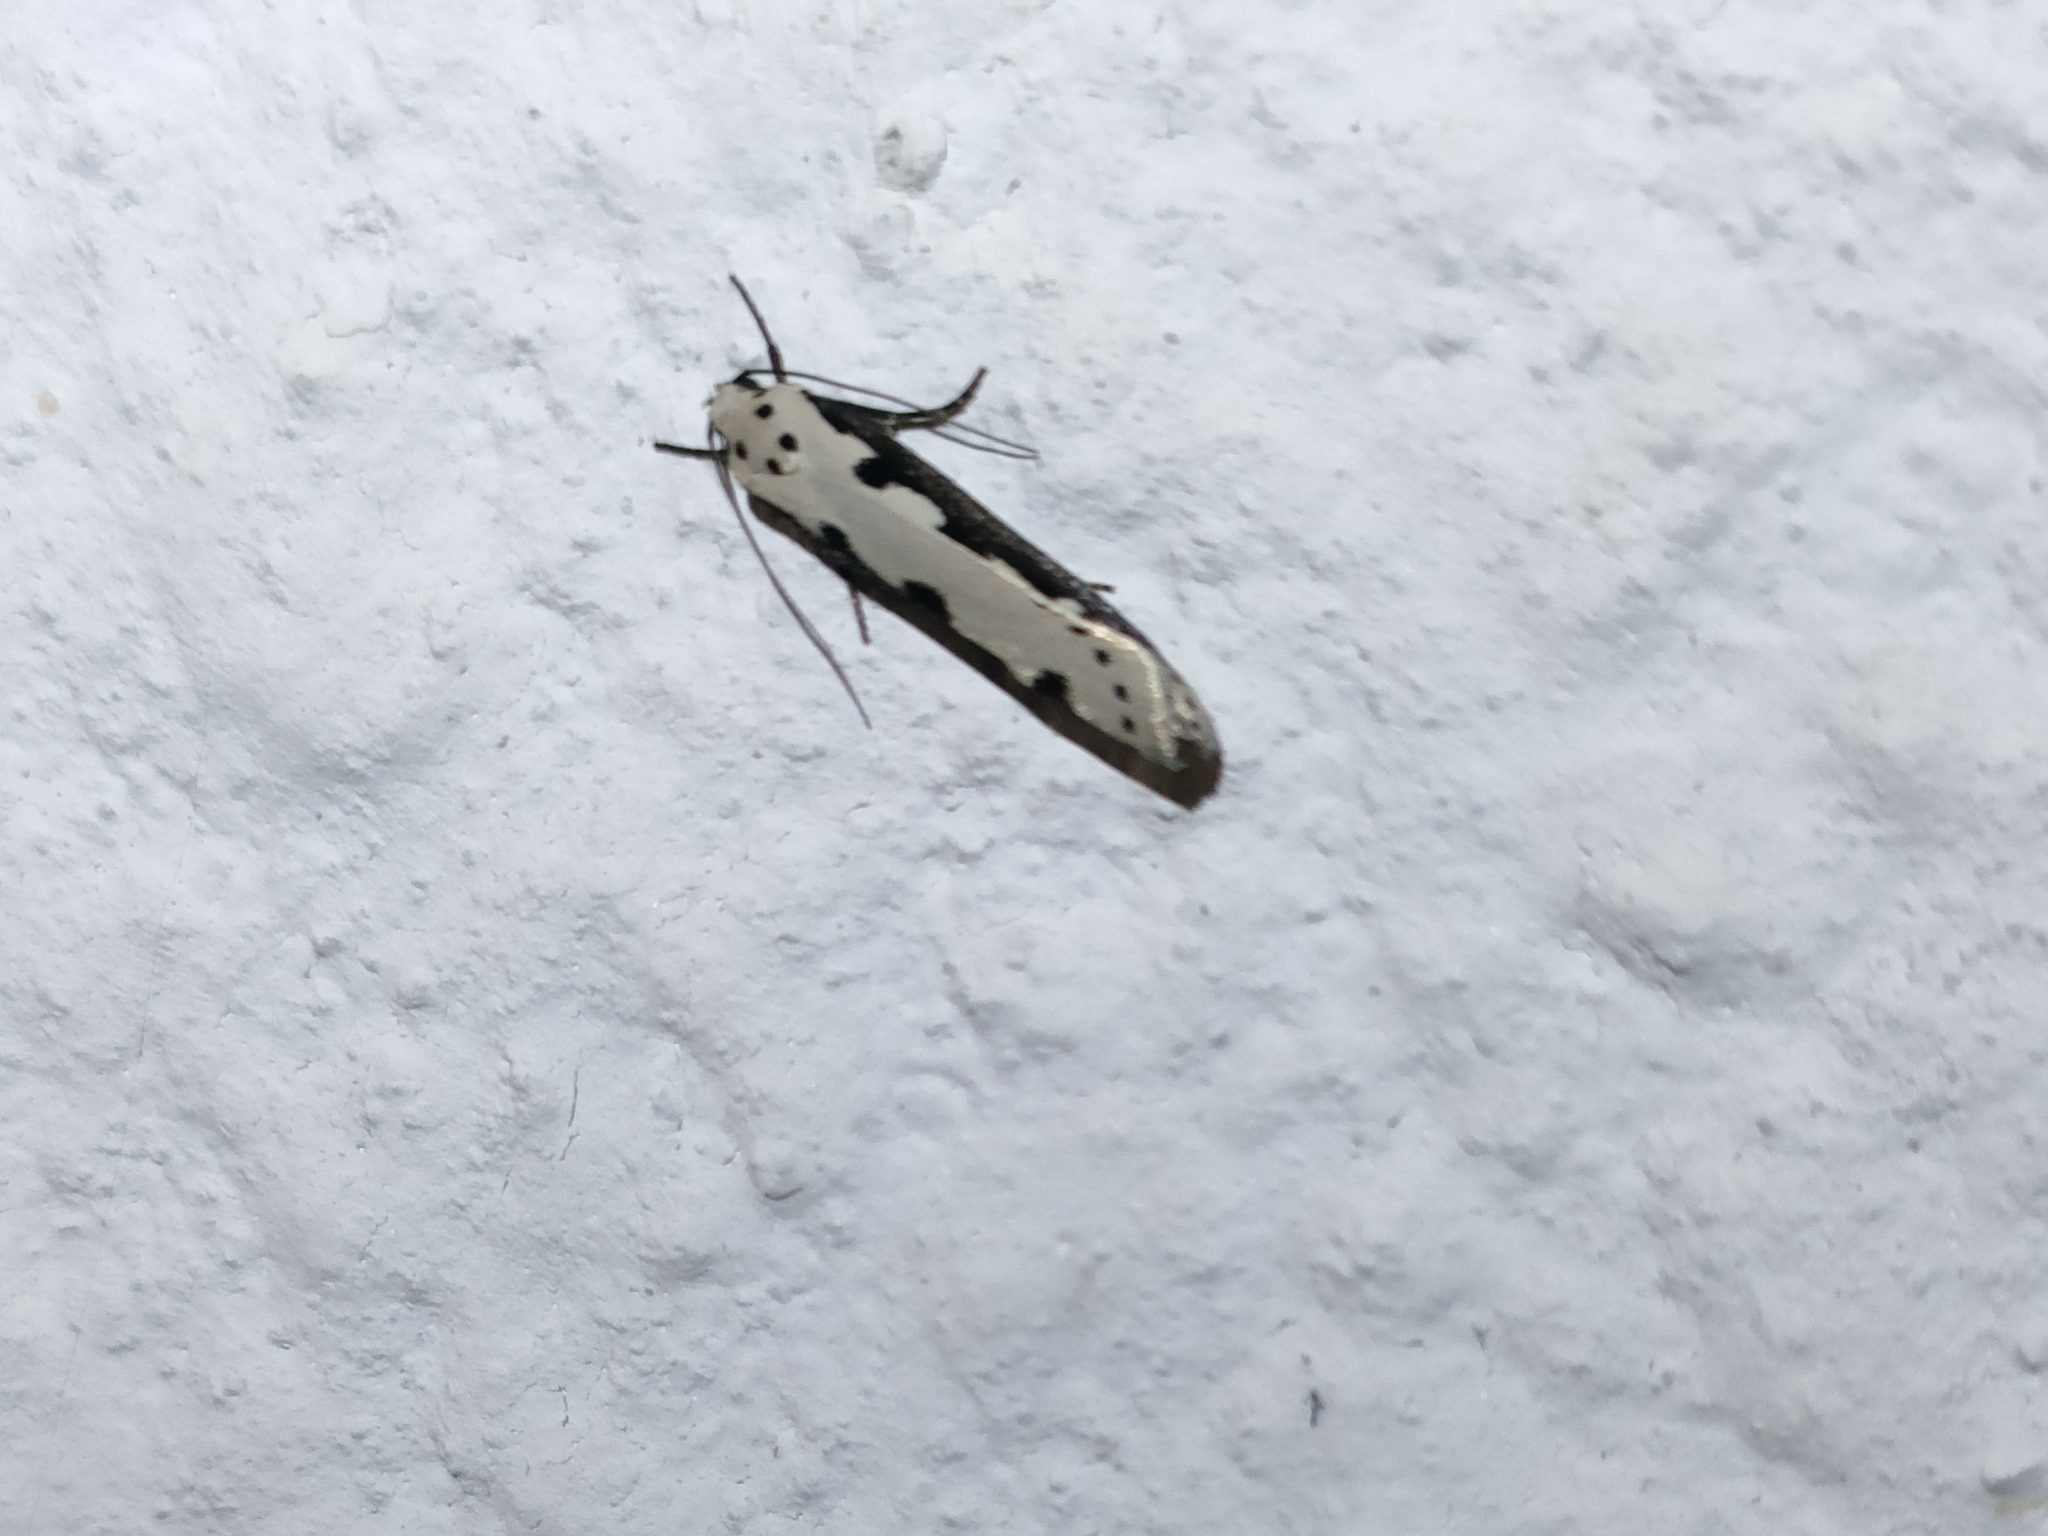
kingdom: Animalia
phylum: Arthropoda
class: Insecta
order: Lepidoptera
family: Ethmiidae
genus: Ethmia
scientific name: Ethmia bipunctella
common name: Bordered ermel
